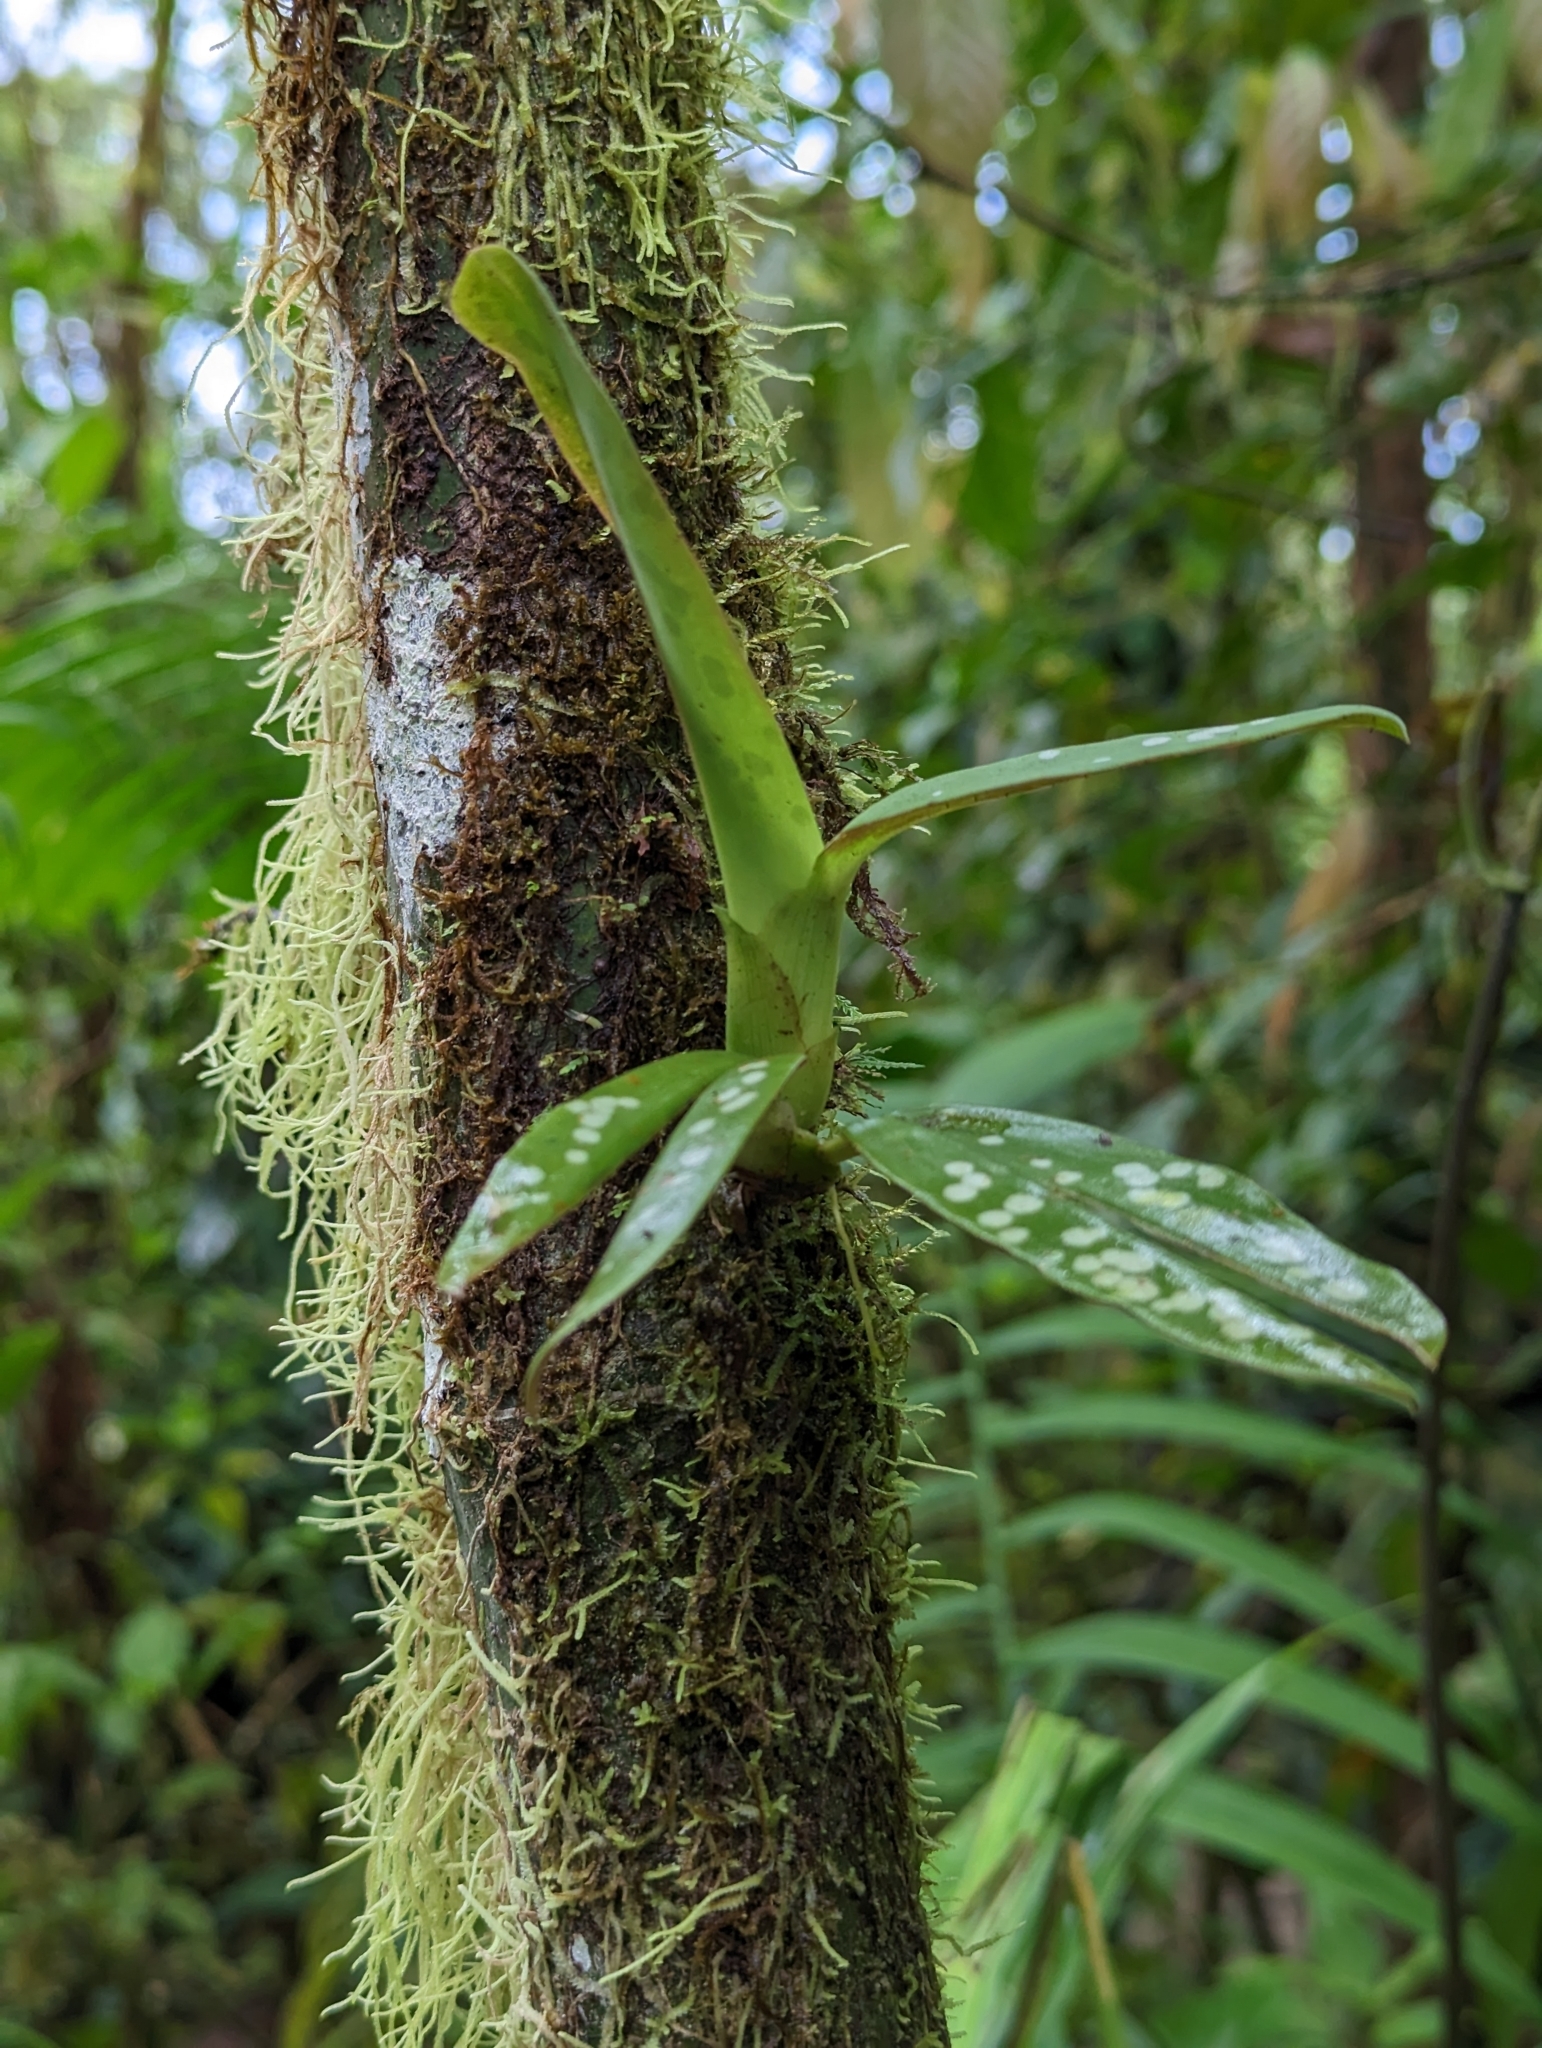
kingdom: Plantae
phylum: Tracheophyta
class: Liliopsida
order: Asparagales
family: Orchidaceae
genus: Maxillaria
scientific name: Maxillaria pseudoreichenheimiana
